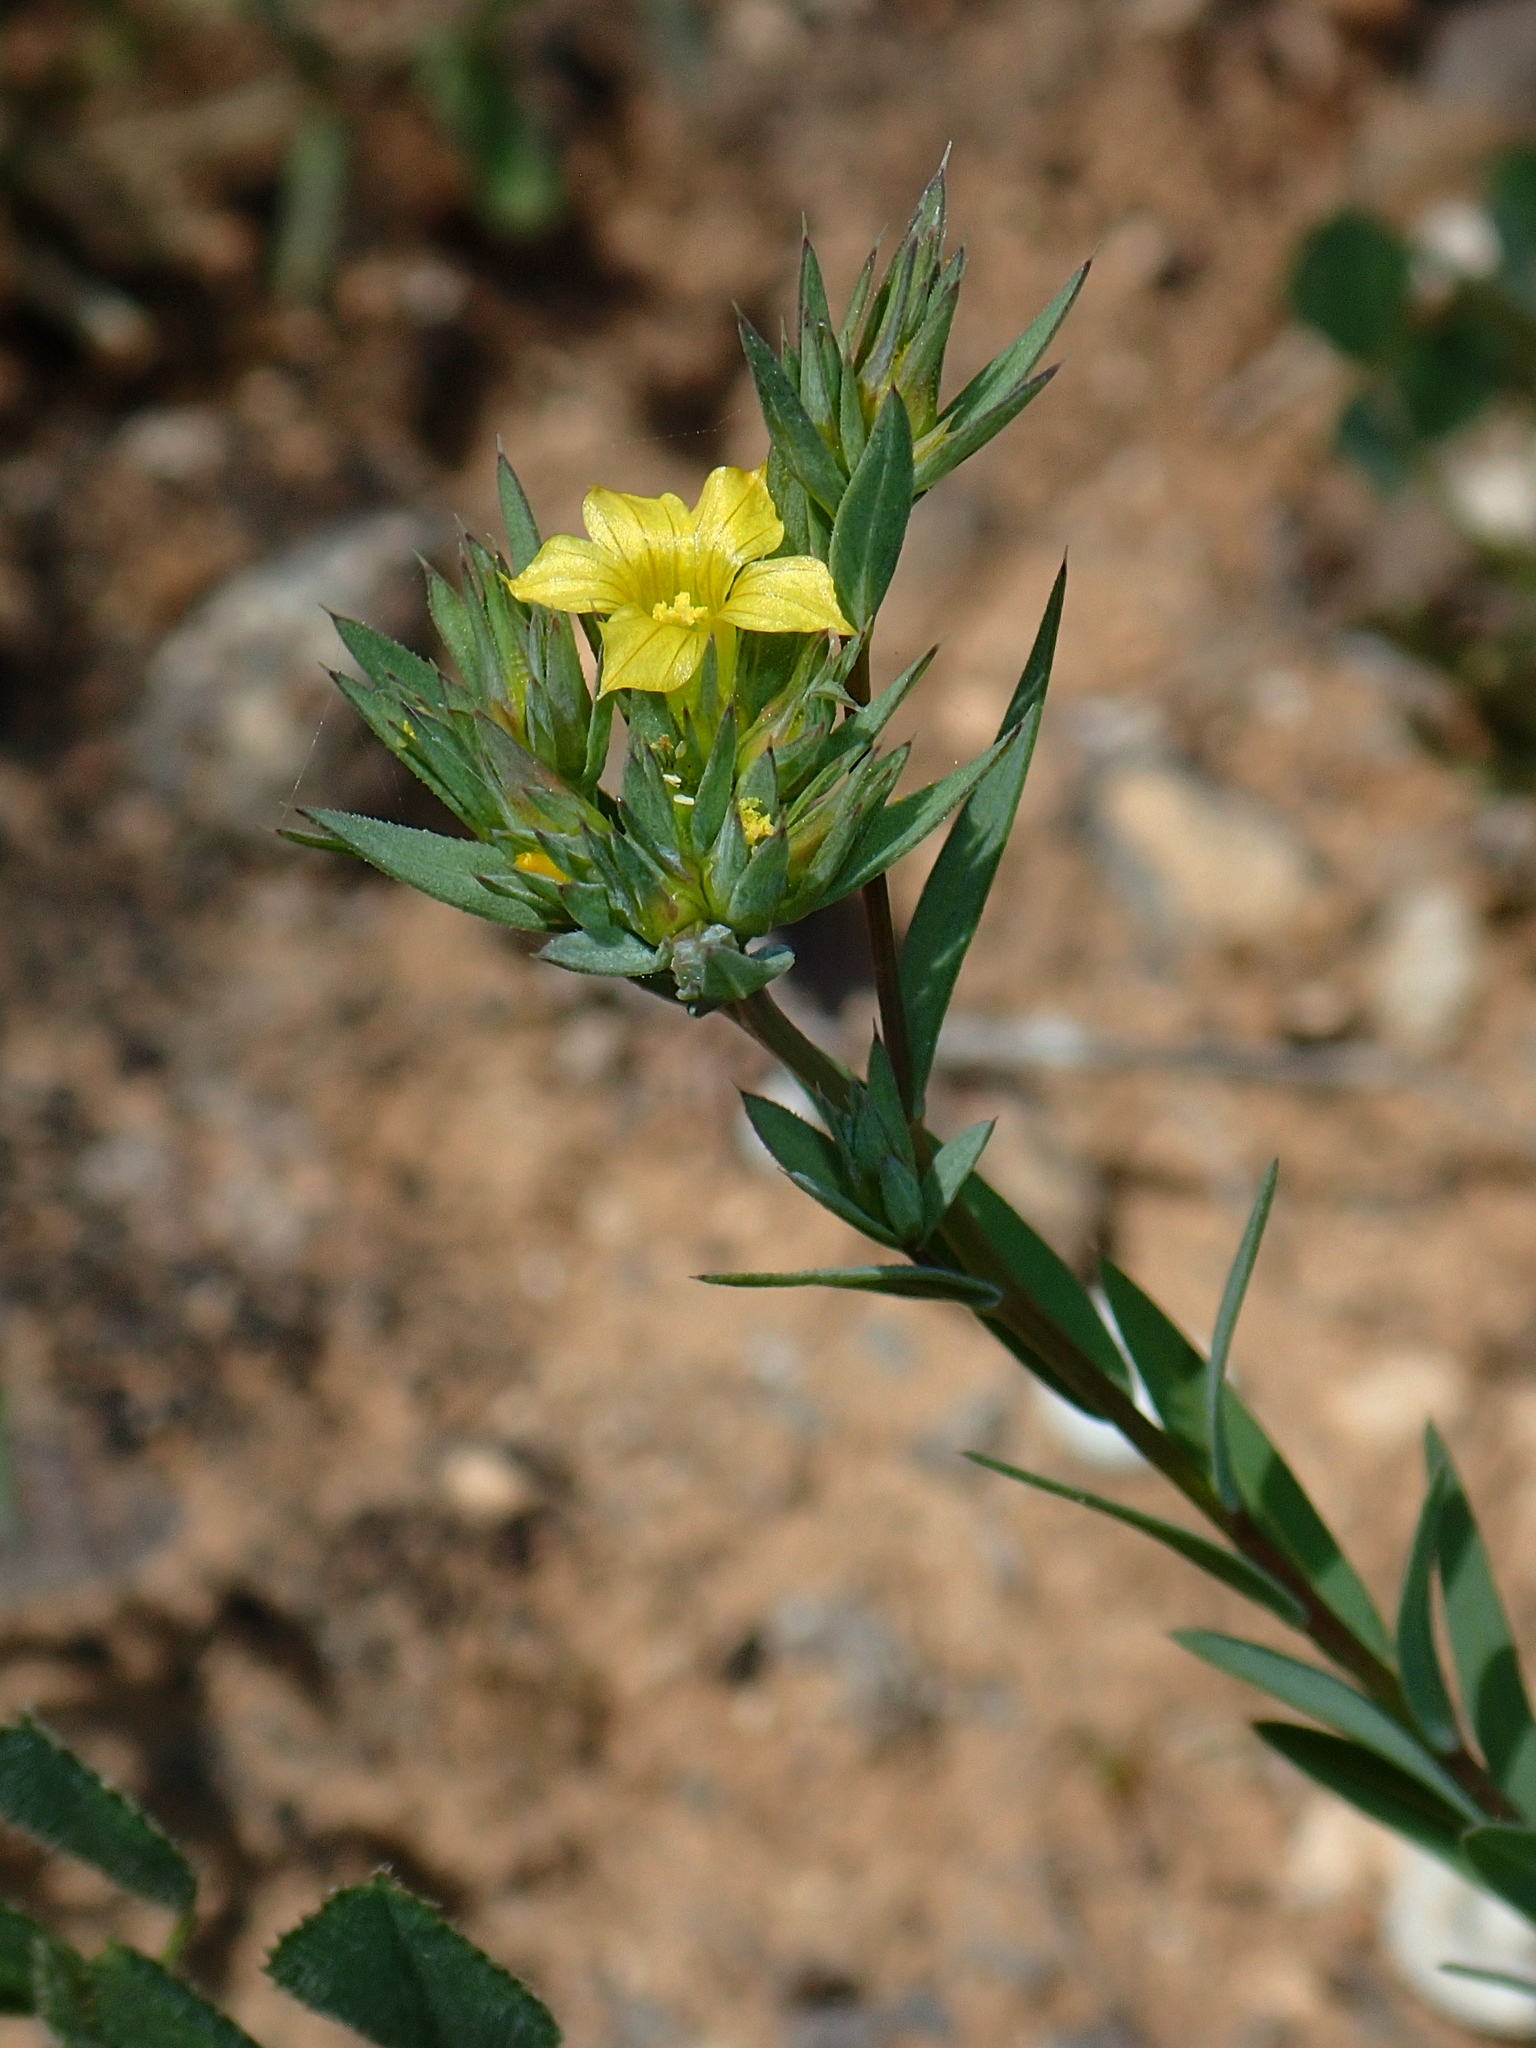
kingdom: Plantae
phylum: Tracheophyta
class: Magnoliopsida
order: Malpighiales
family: Linaceae
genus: Linum
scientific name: Linum strictum
